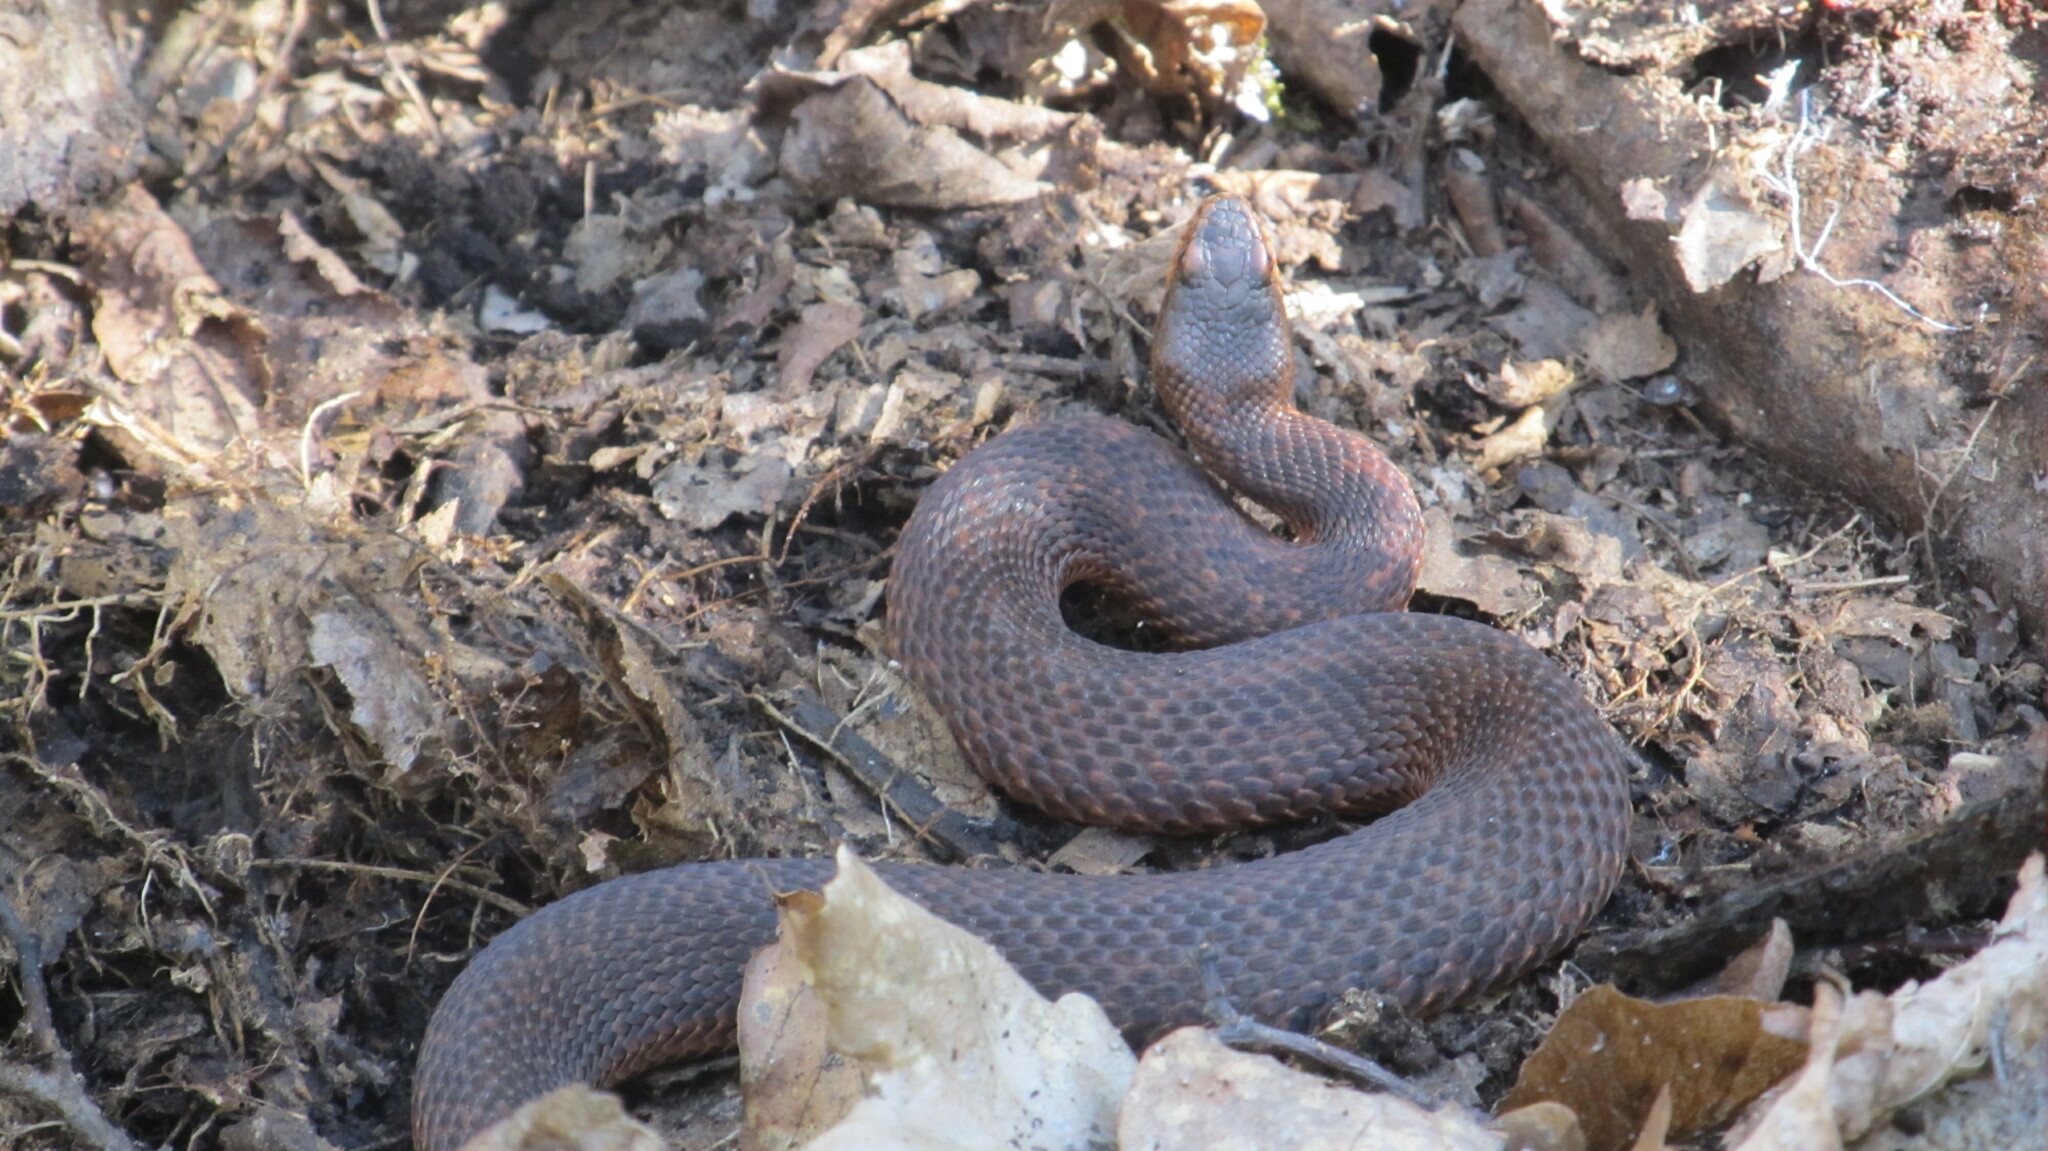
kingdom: Animalia
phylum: Chordata
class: Squamata
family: Viperidae
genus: Vipera
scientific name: Vipera berus
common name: Adder
